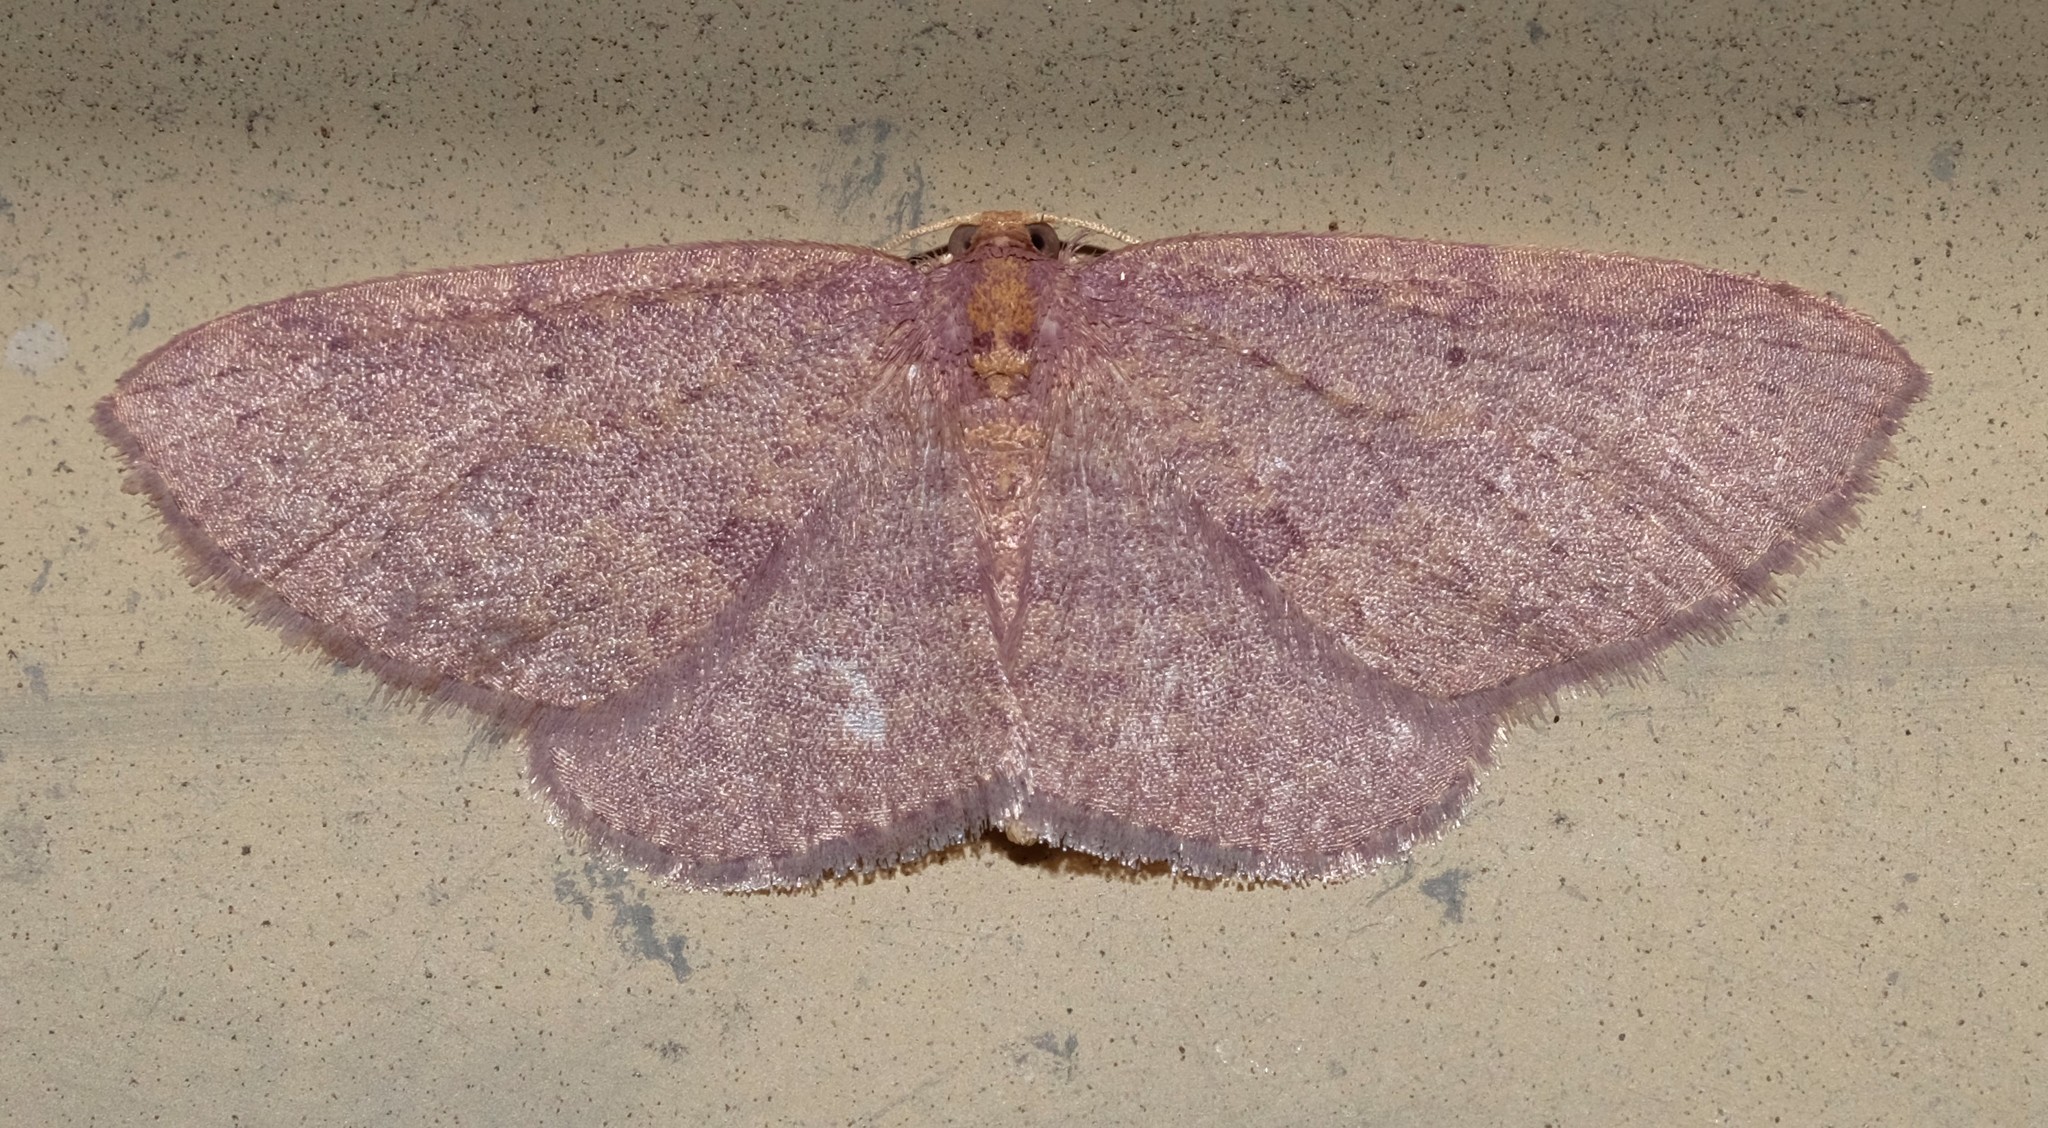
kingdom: Animalia
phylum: Arthropoda
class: Insecta
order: Lepidoptera
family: Geometridae
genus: Poecilasthena
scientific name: Poecilasthena anthodes
